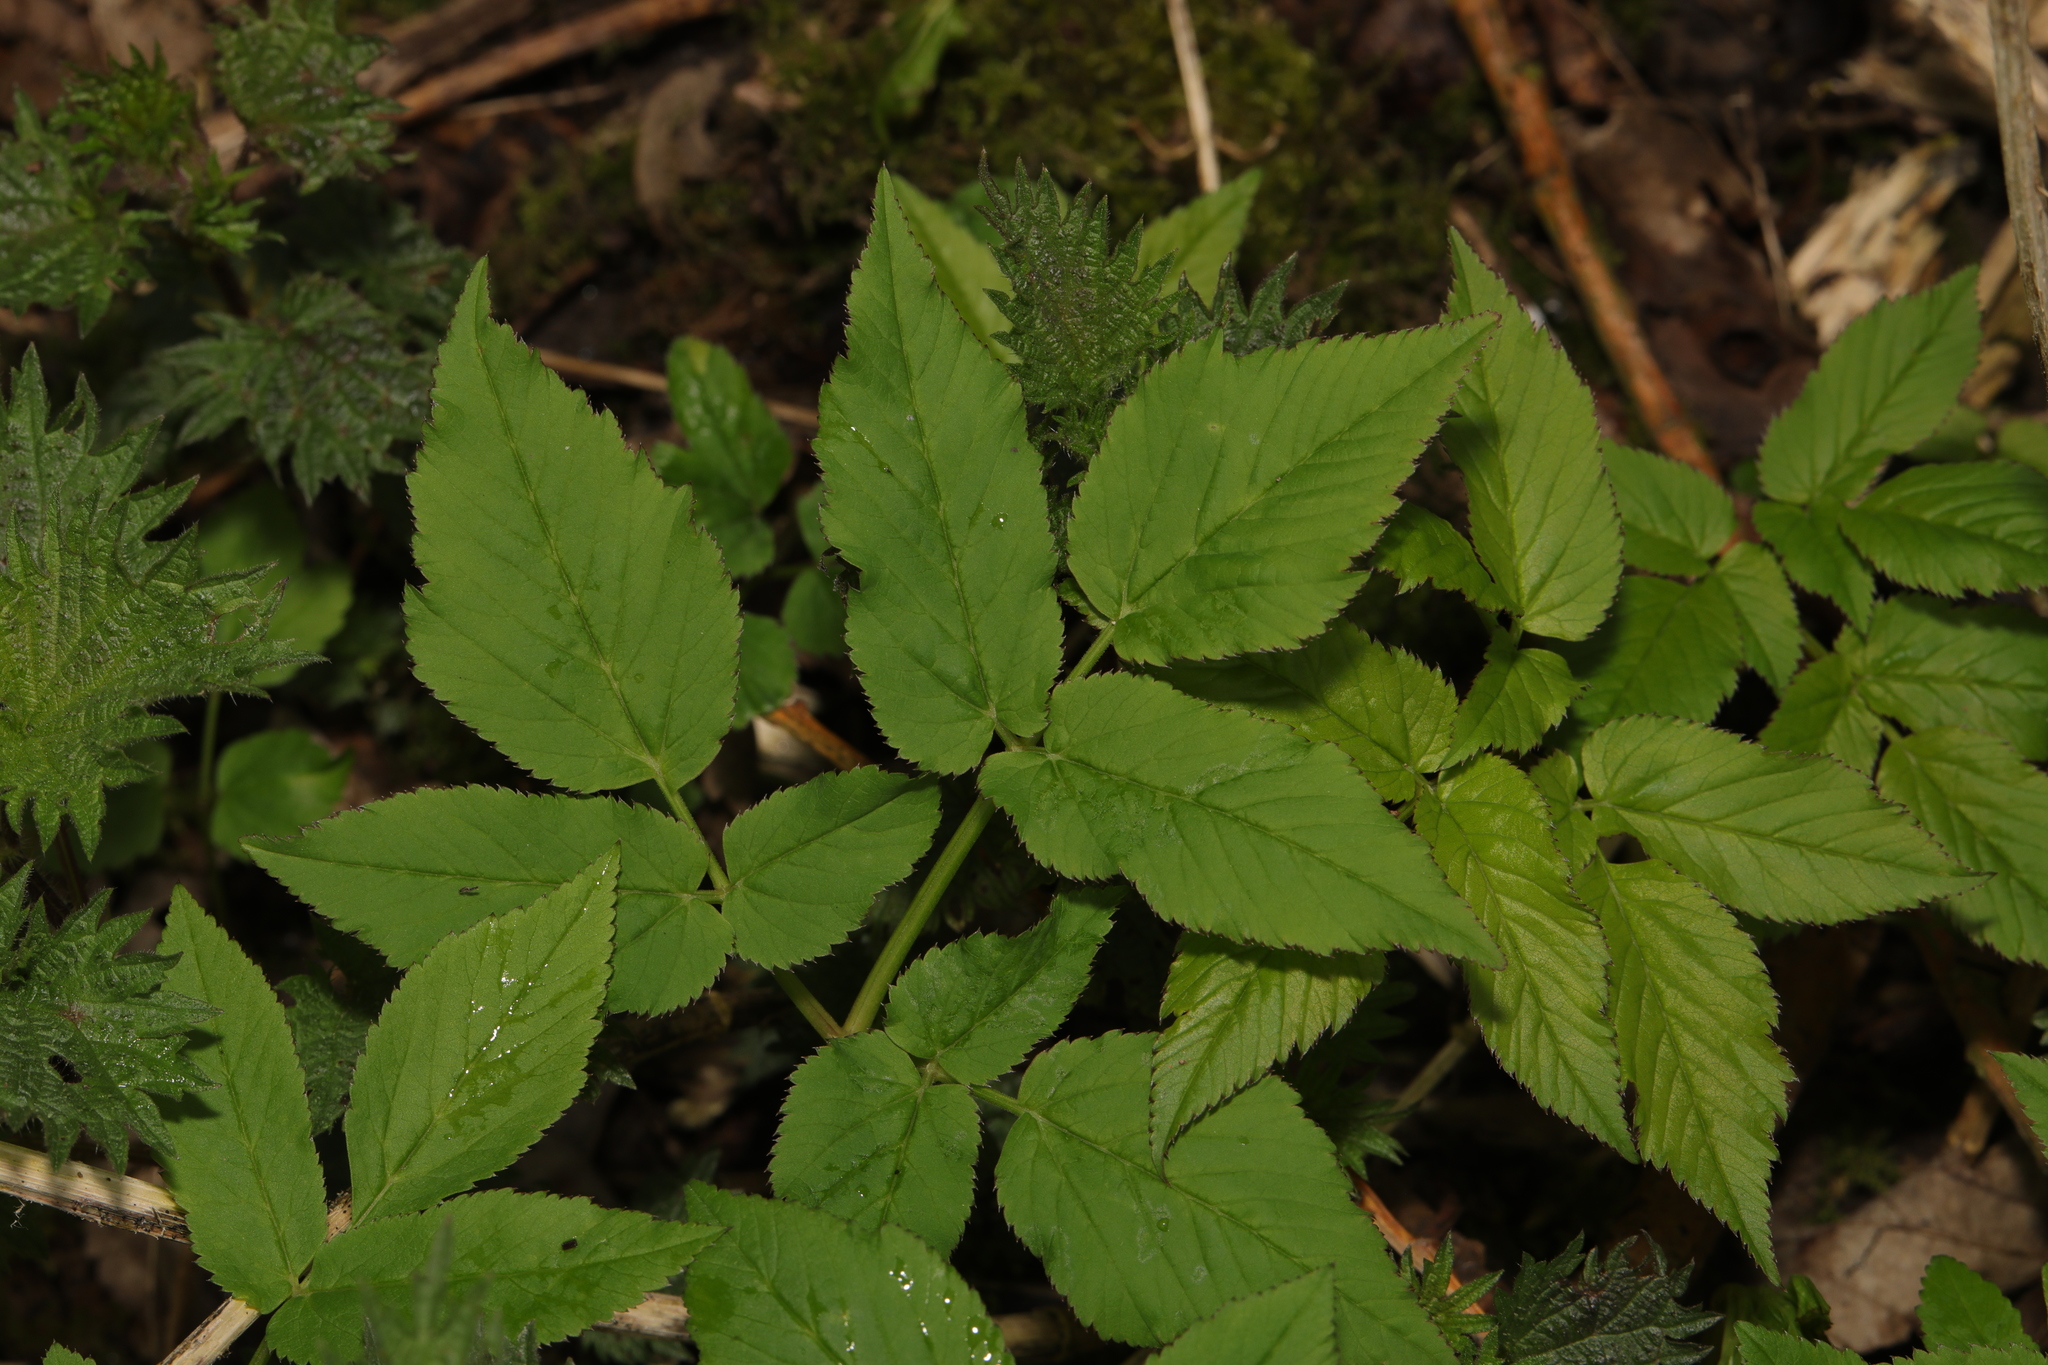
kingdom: Plantae
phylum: Tracheophyta
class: Magnoliopsida
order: Apiales
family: Apiaceae
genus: Aegopodium
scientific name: Aegopodium podagraria
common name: Ground-elder
